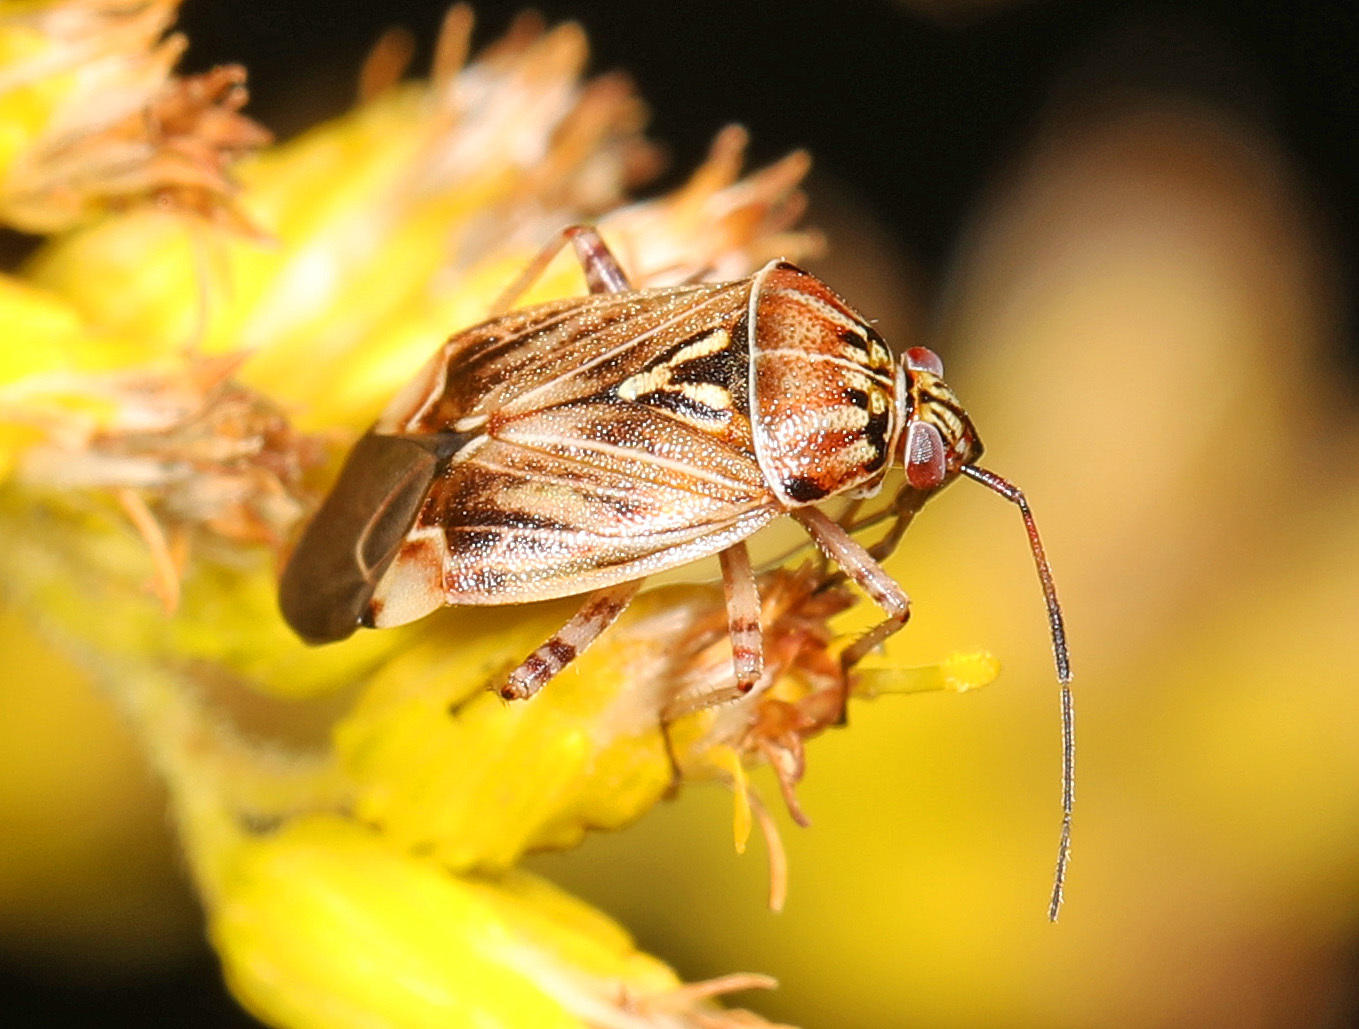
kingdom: Animalia
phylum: Arthropoda
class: Insecta
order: Hemiptera
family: Miridae
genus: Lygus
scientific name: Lygus lineolaris
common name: North american tarnished plant bug
